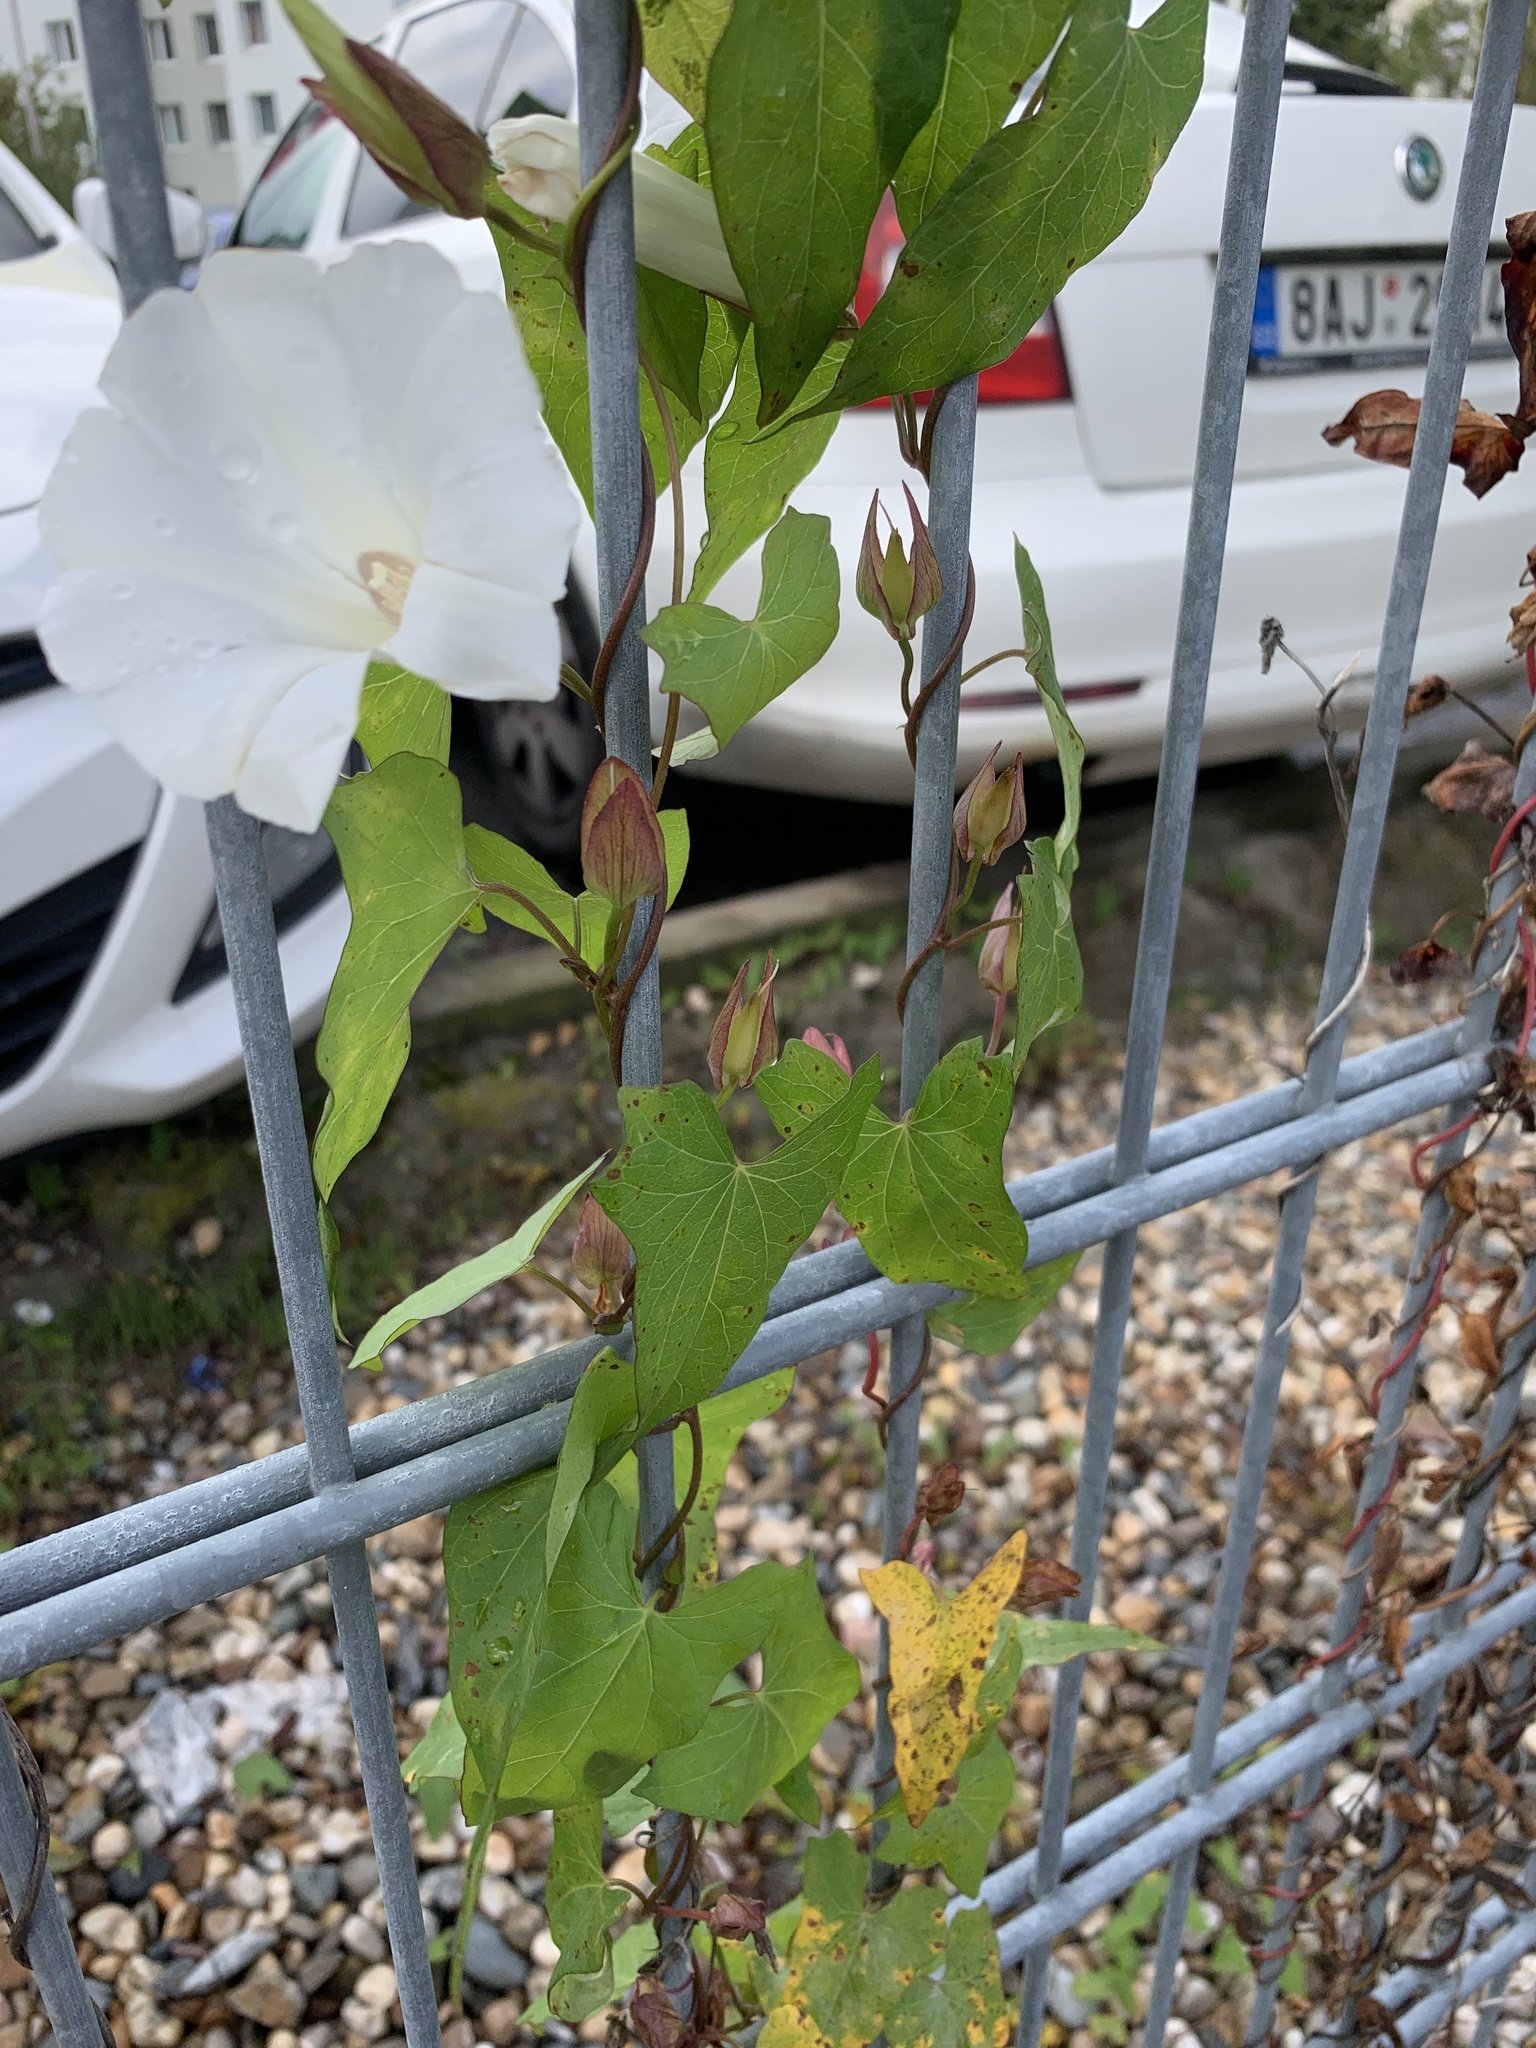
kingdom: Plantae
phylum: Tracheophyta
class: Magnoliopsida
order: Solanales
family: Convolvulaceae
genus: Calystegia
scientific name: Calystegia sepium
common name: Hedge bindweed
